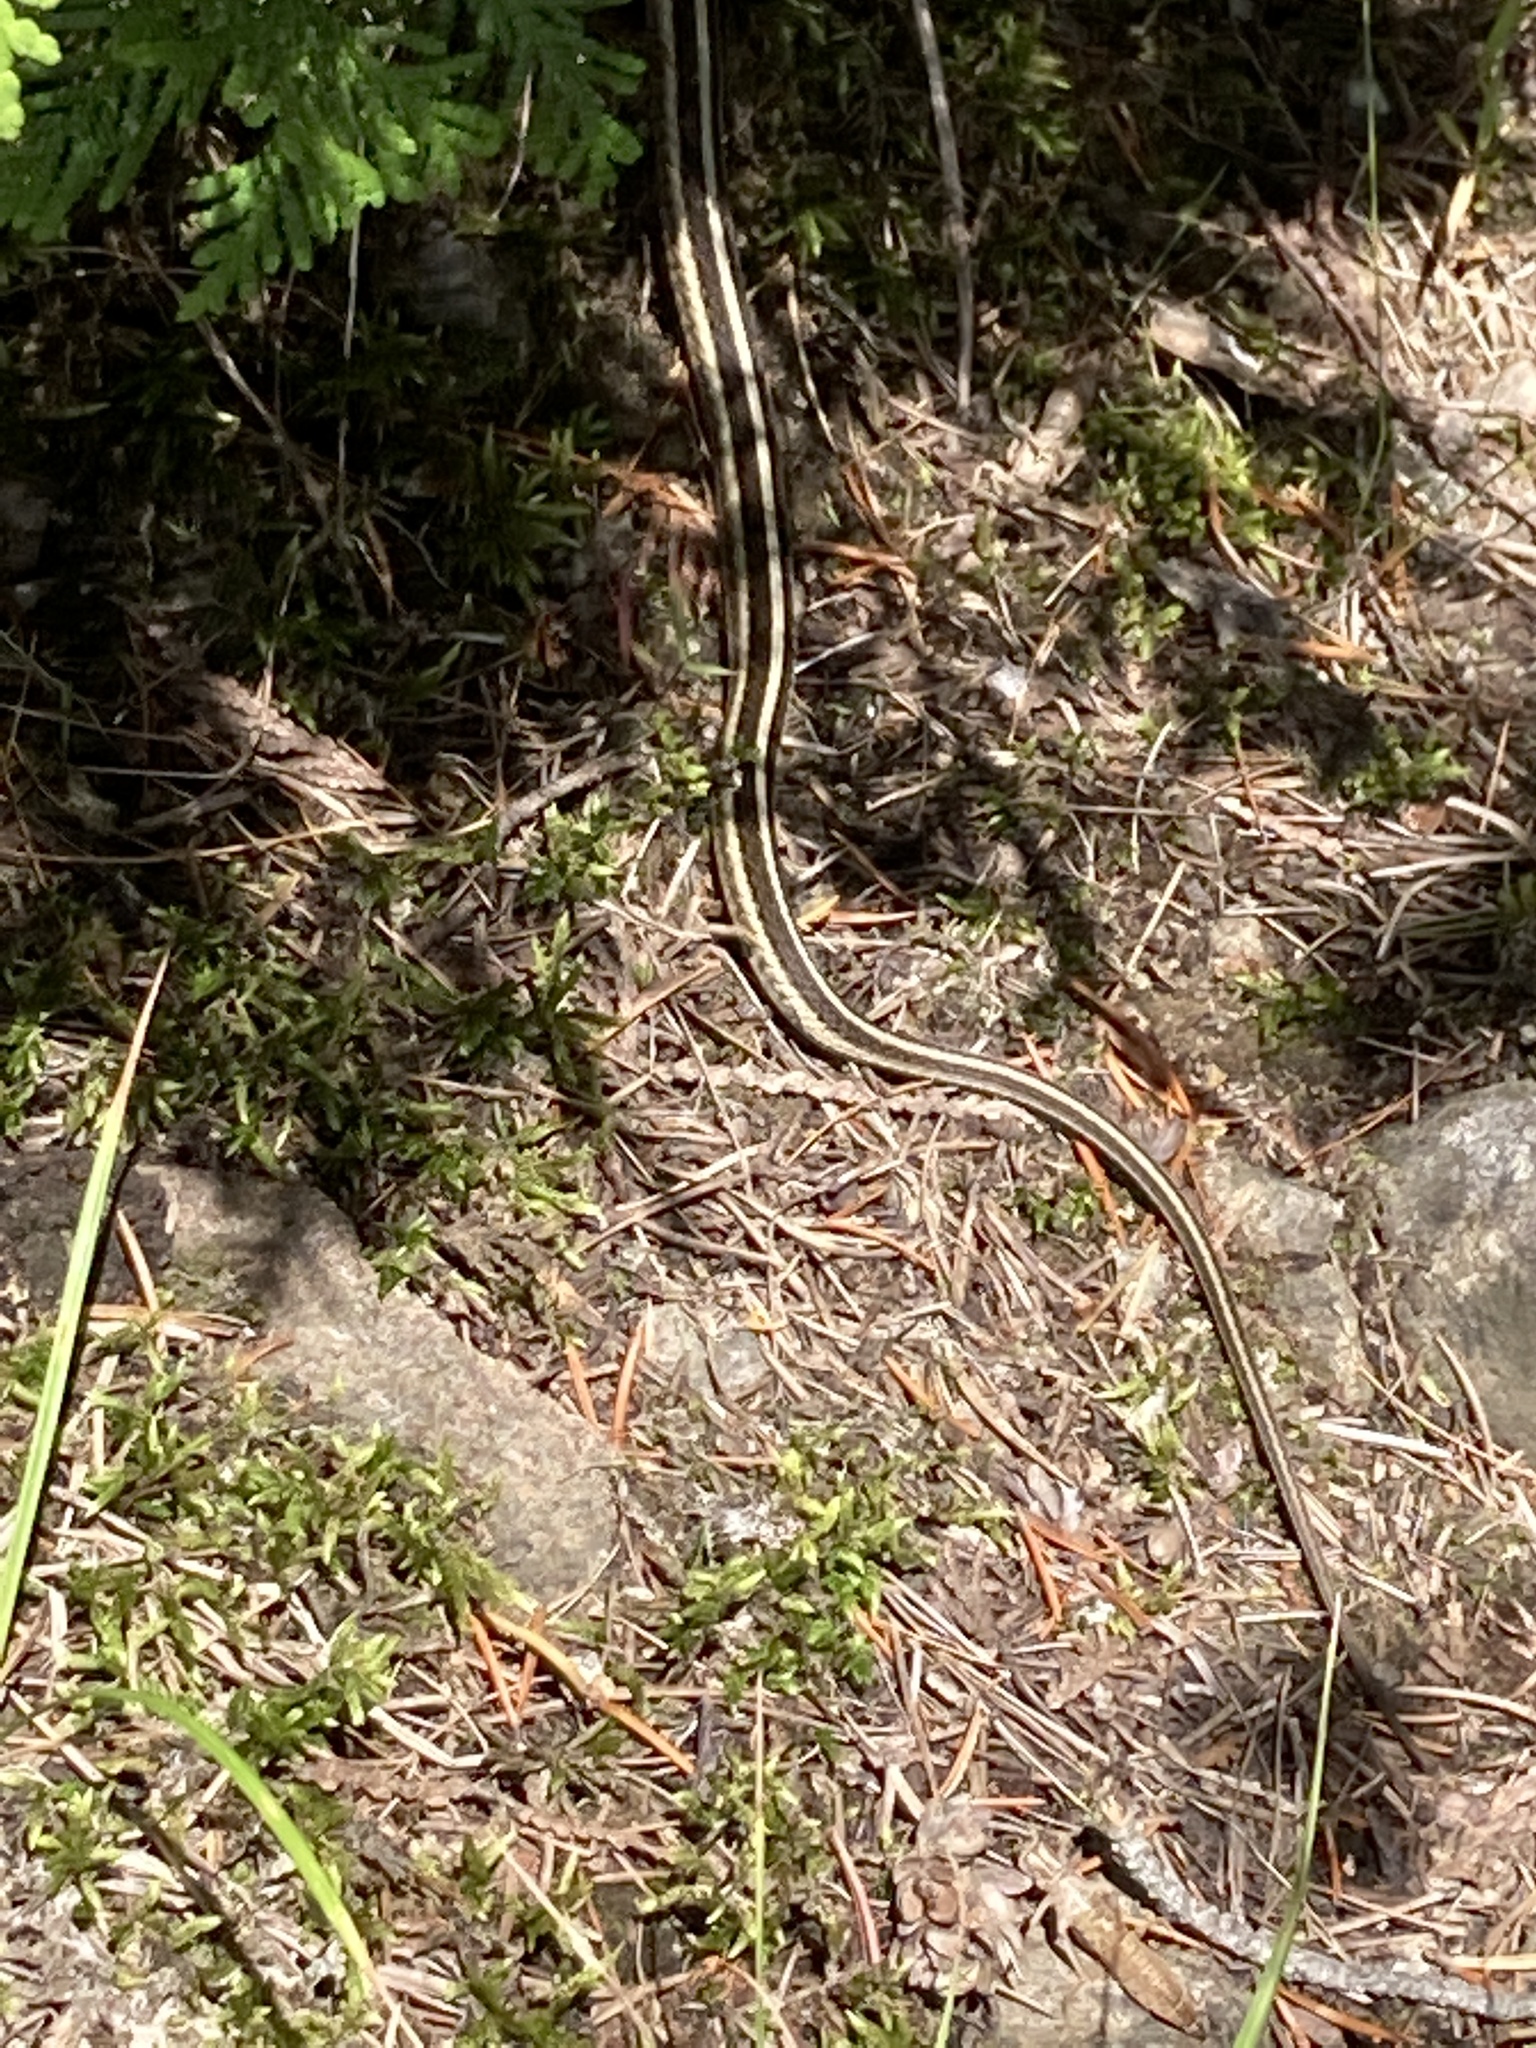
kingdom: Animalia
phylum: Chordata
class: Squamata
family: Colubridae
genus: Thamnophis
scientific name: Thamnophis sirtalis
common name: Common garter snake
